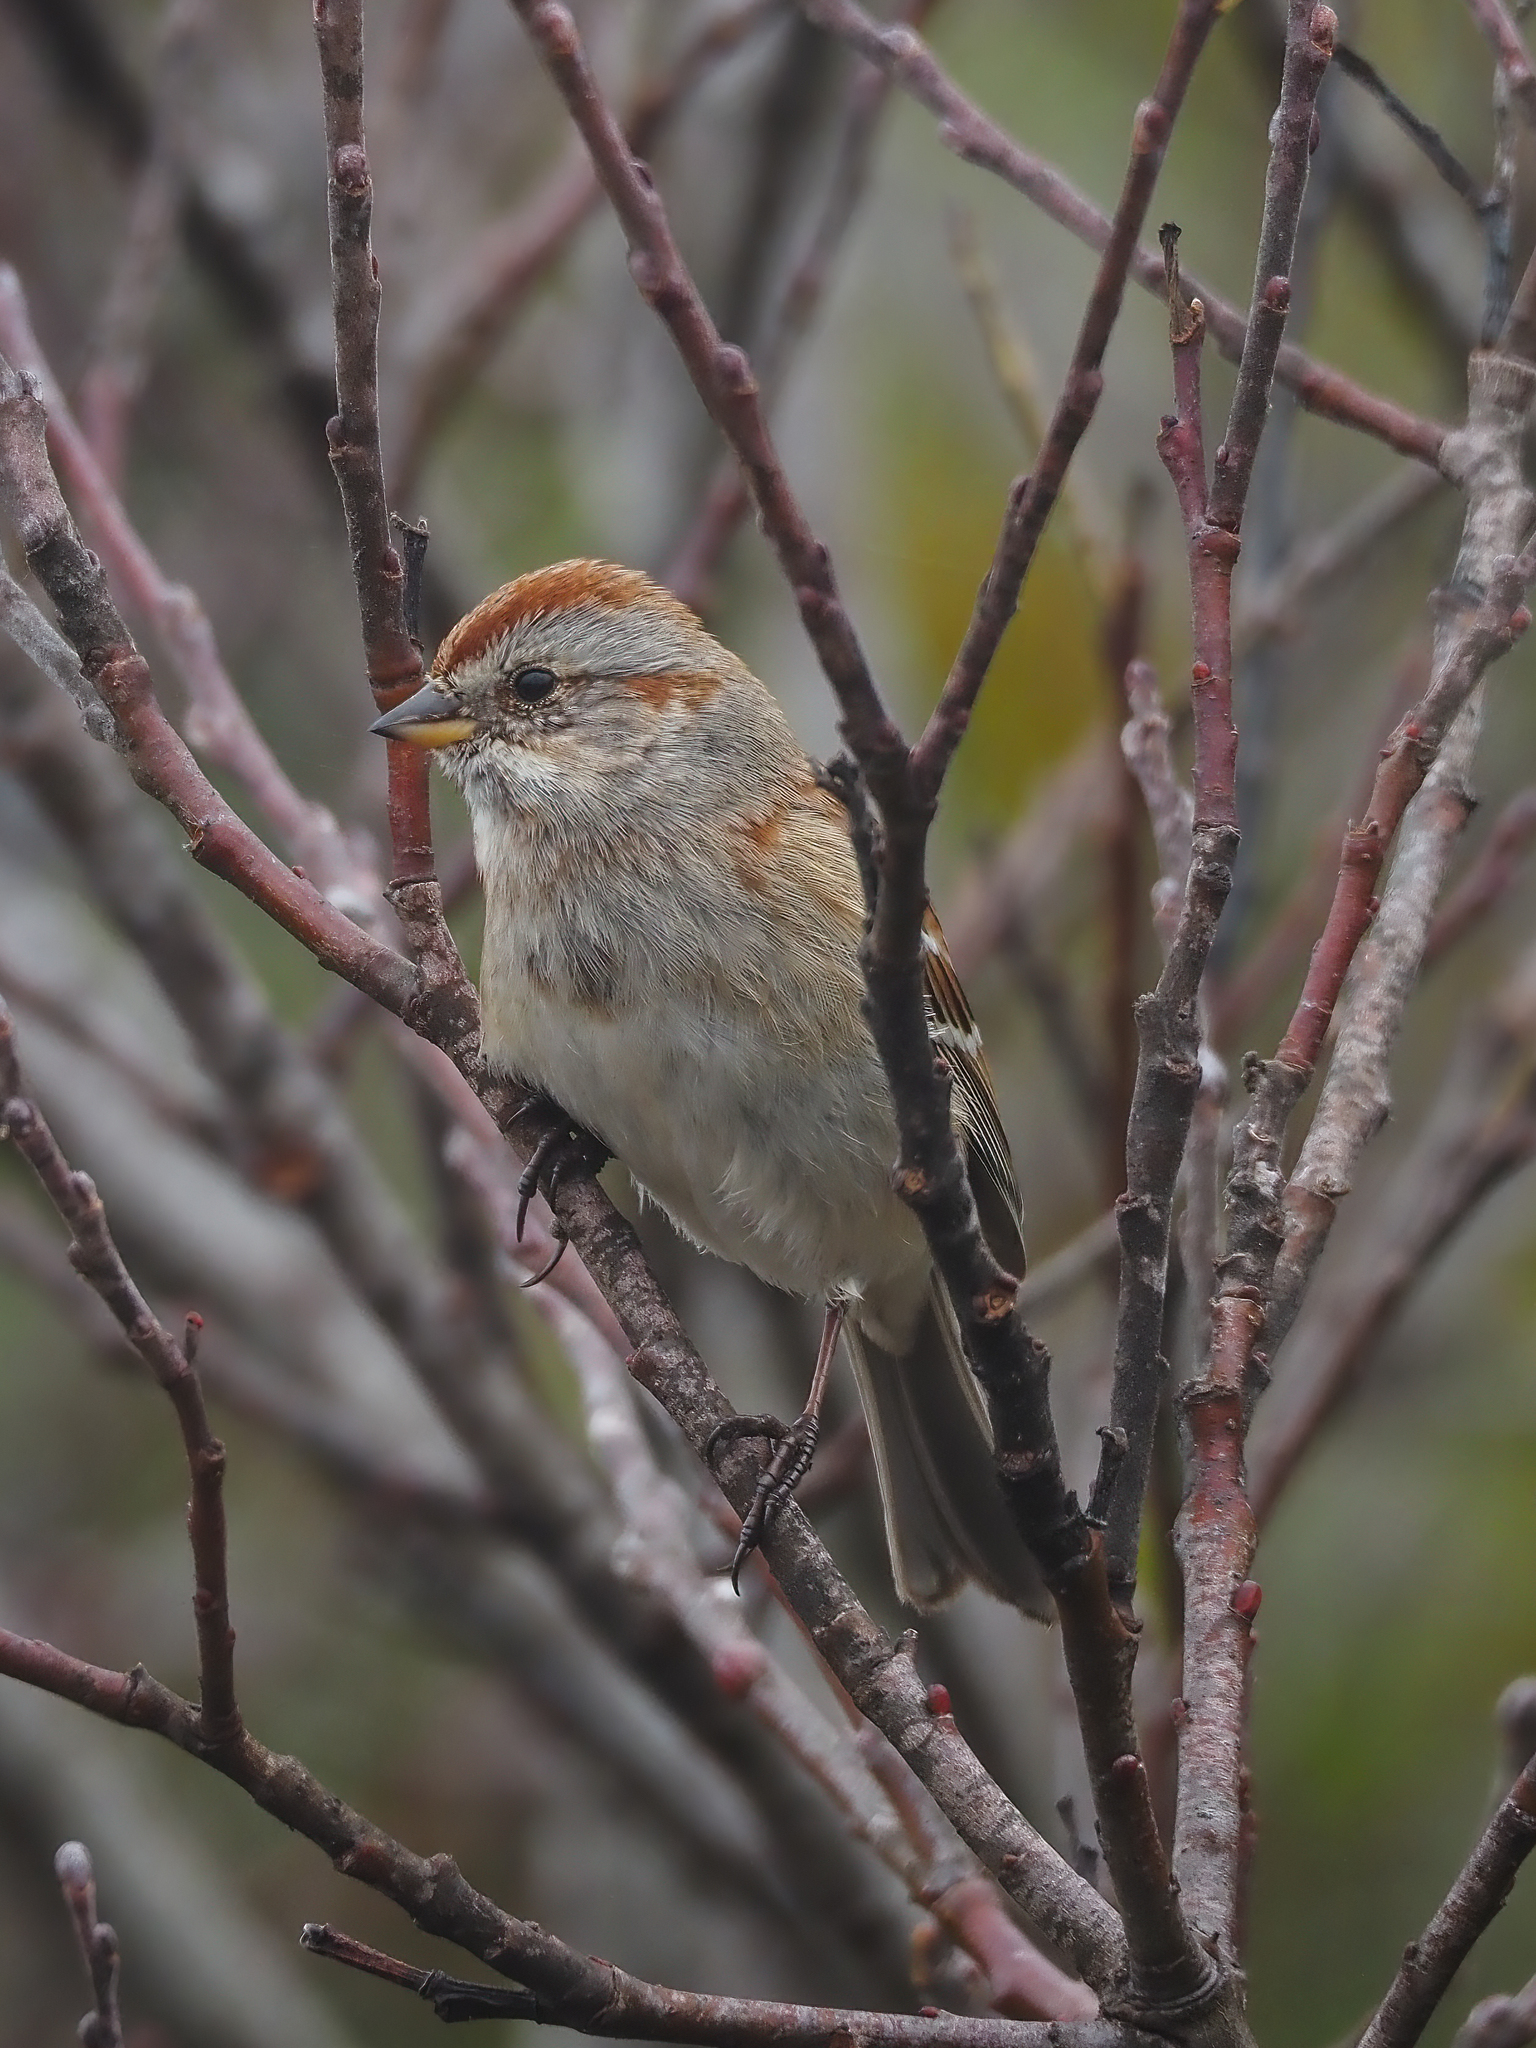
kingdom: Animalia
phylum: Chordata
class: Aves
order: Passeriformes
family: Passerellidae
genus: Spizelloides
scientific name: Spizelloides arborea
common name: American tree sparrow
